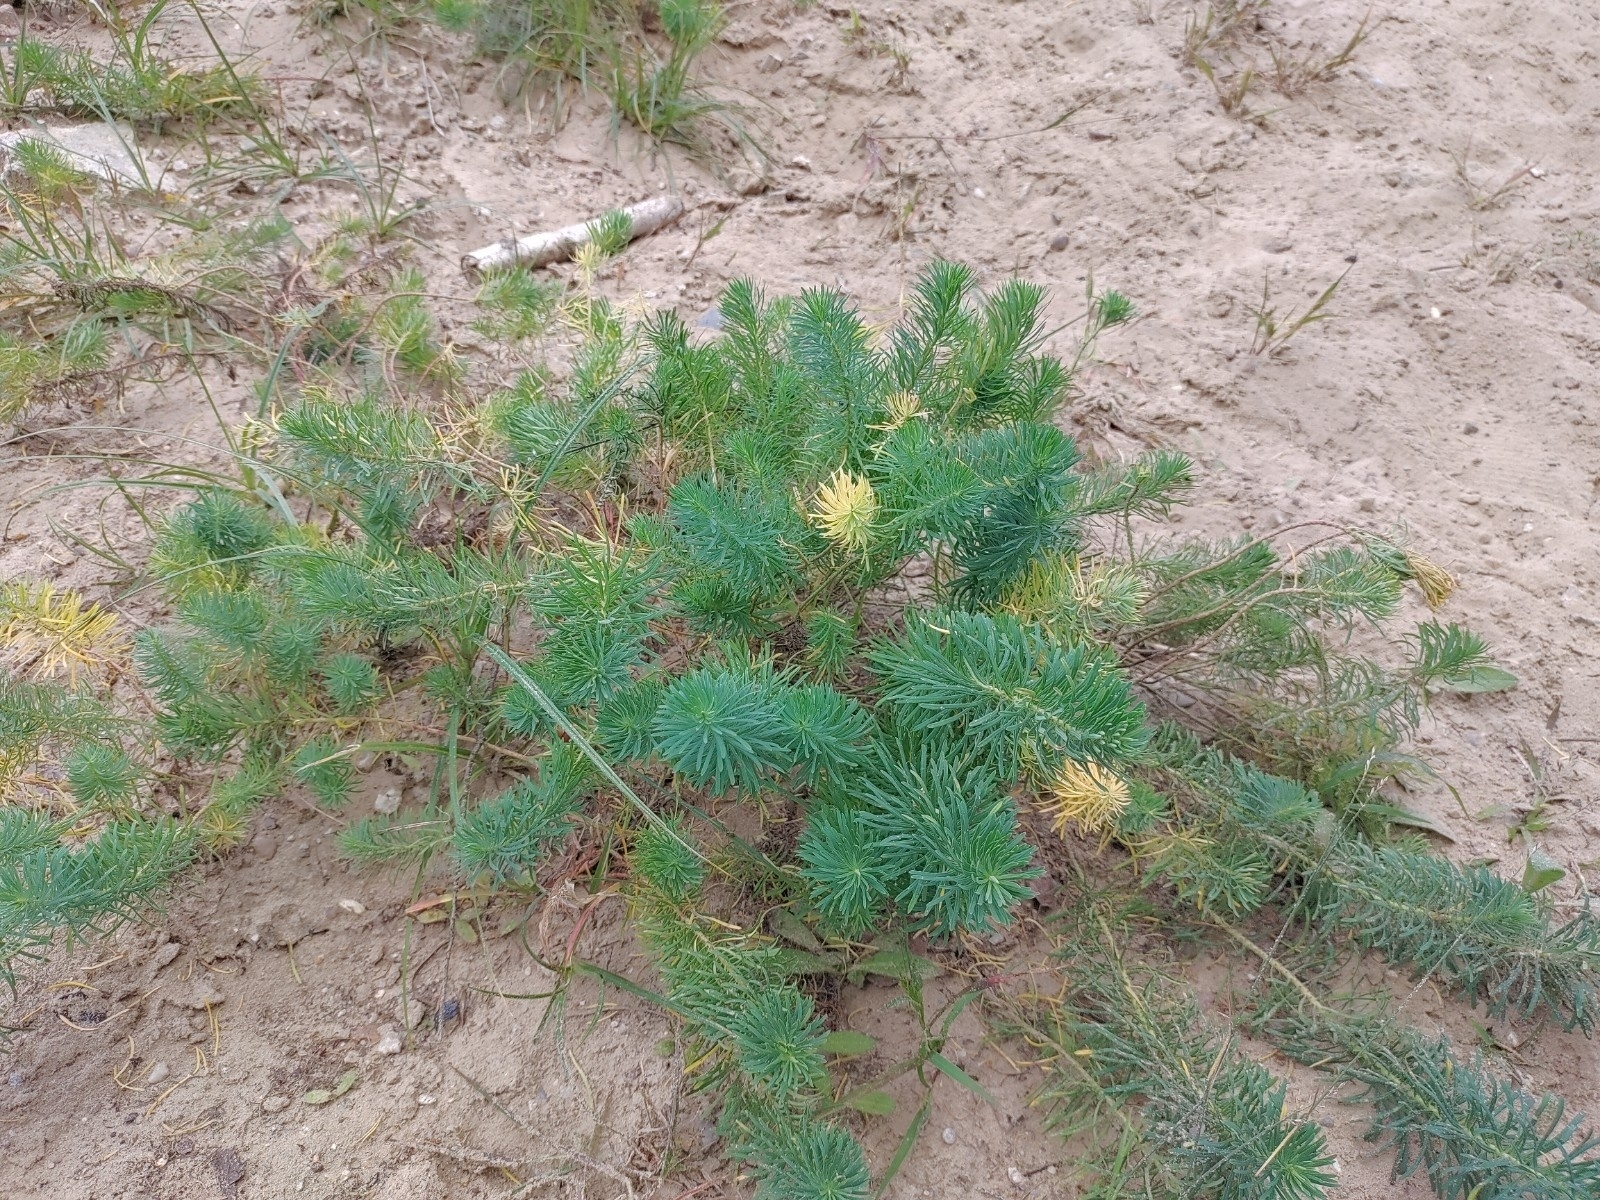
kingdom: Plantae
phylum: Tracheophyta
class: Magnoliopsida
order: Malpighiales
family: Euphorbiaceae
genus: Euphorbia
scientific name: Euphorbia cyparissias
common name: Cypress spurge
